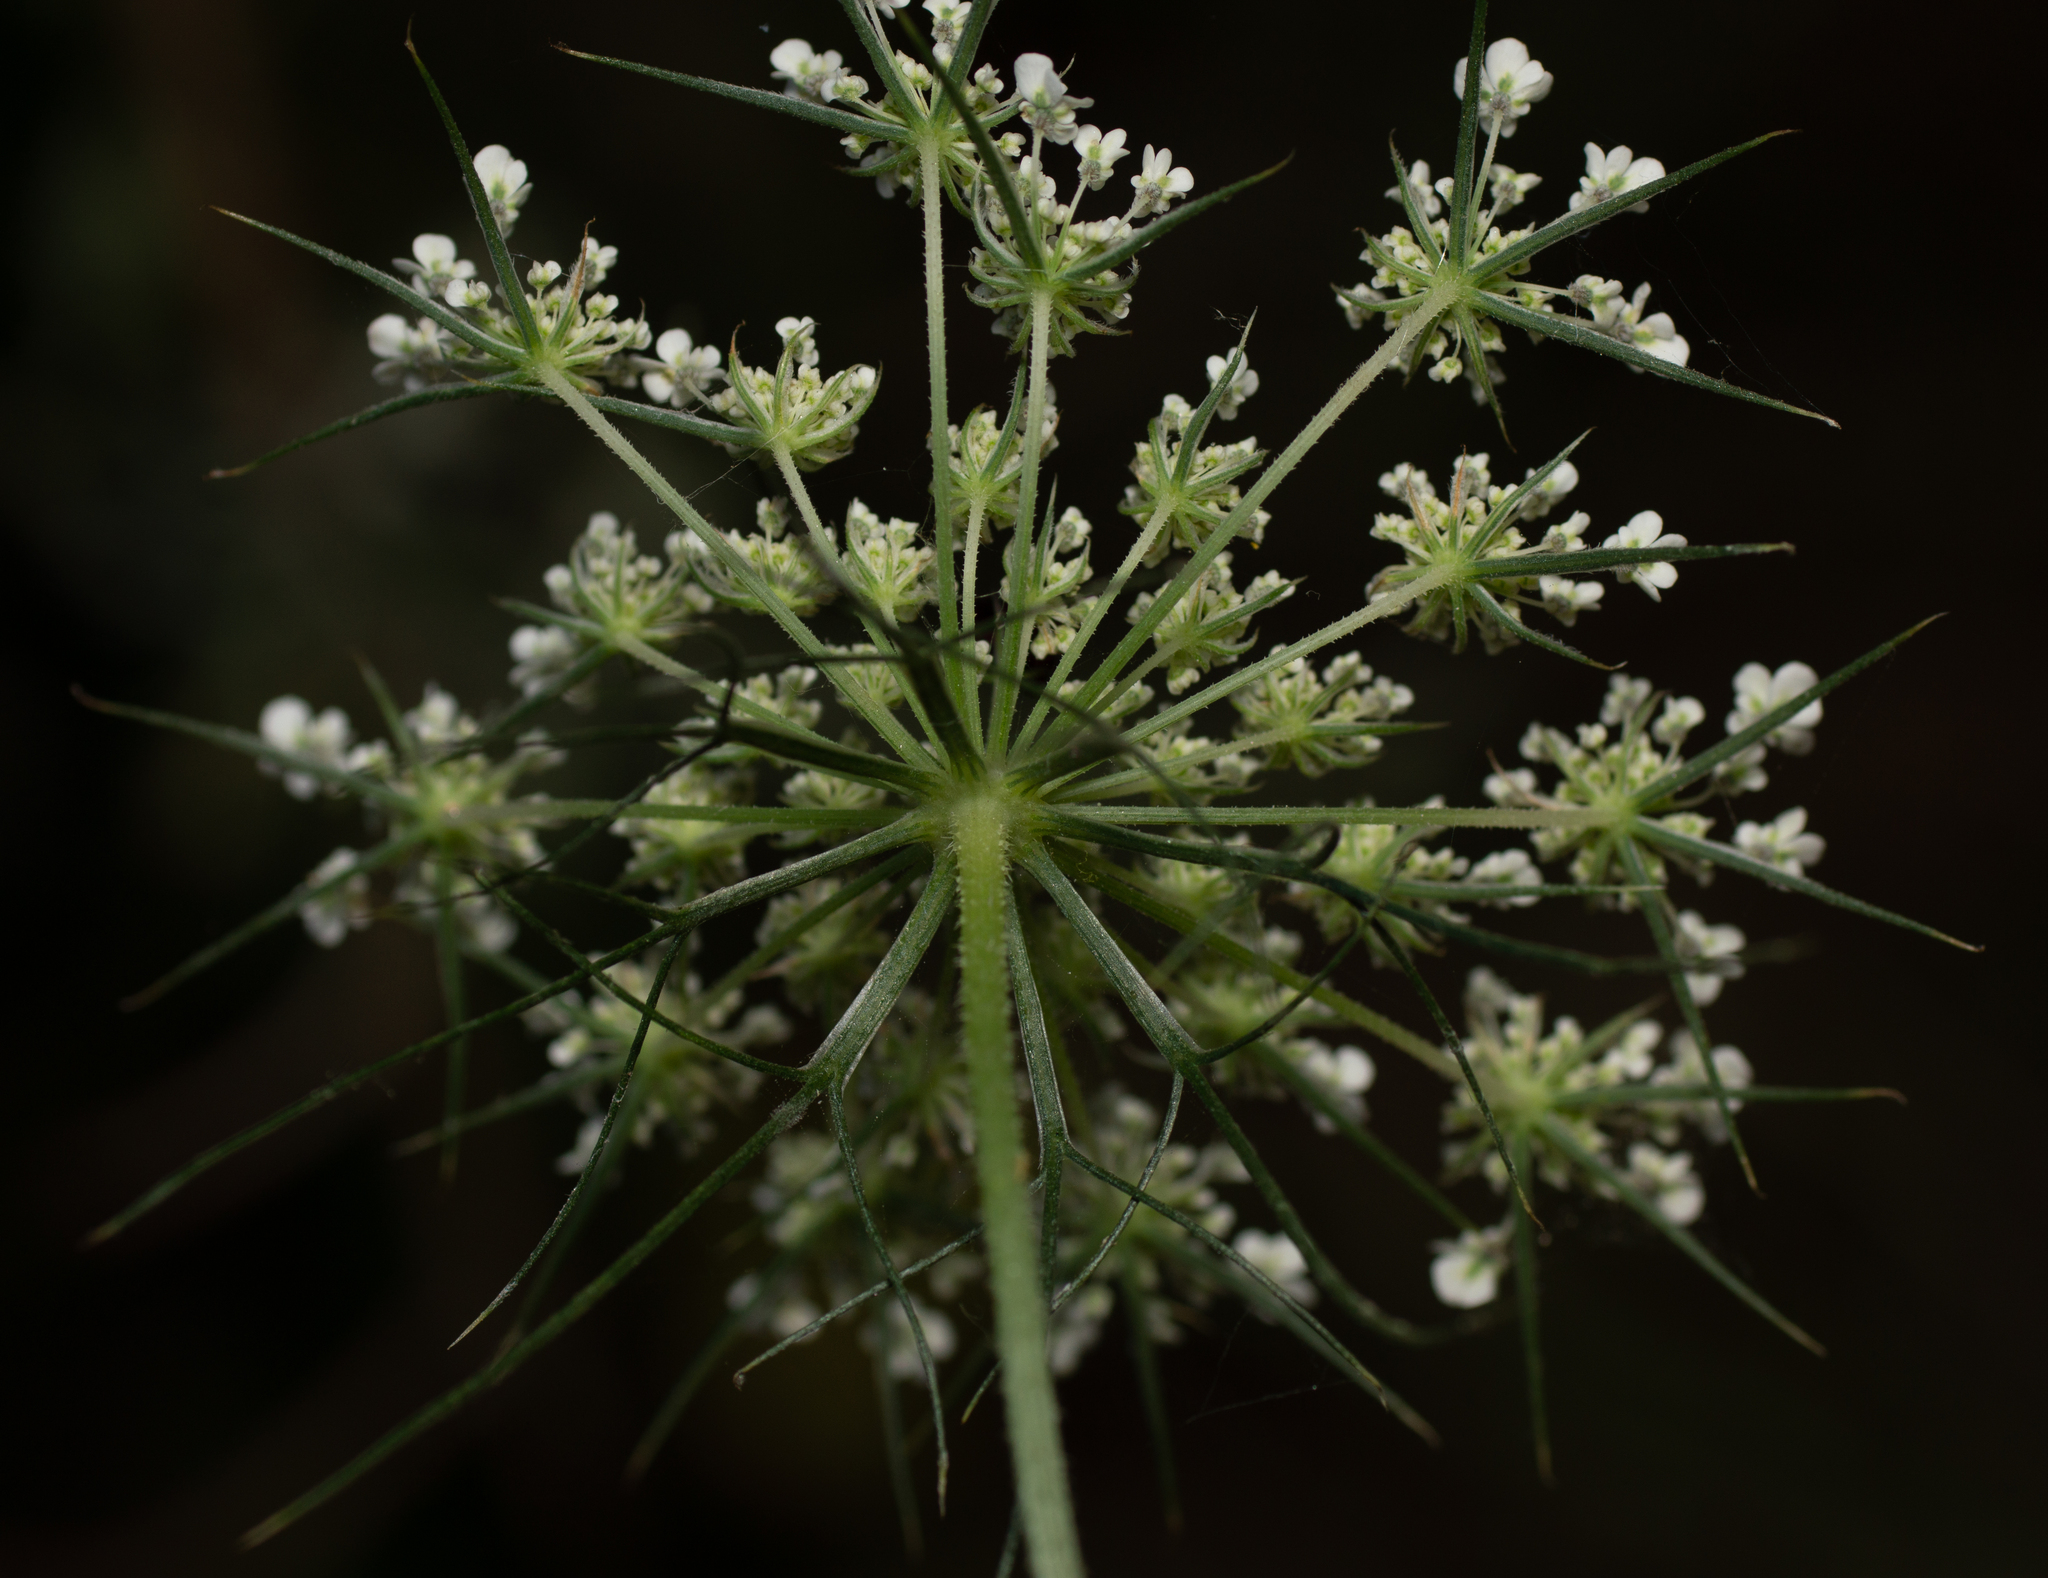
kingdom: Plantae
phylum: Tracheophyta
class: Magnoliopsida
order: Apiales
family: Apiaceae
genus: Daucus
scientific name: Daucus carota
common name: Wild carrot
